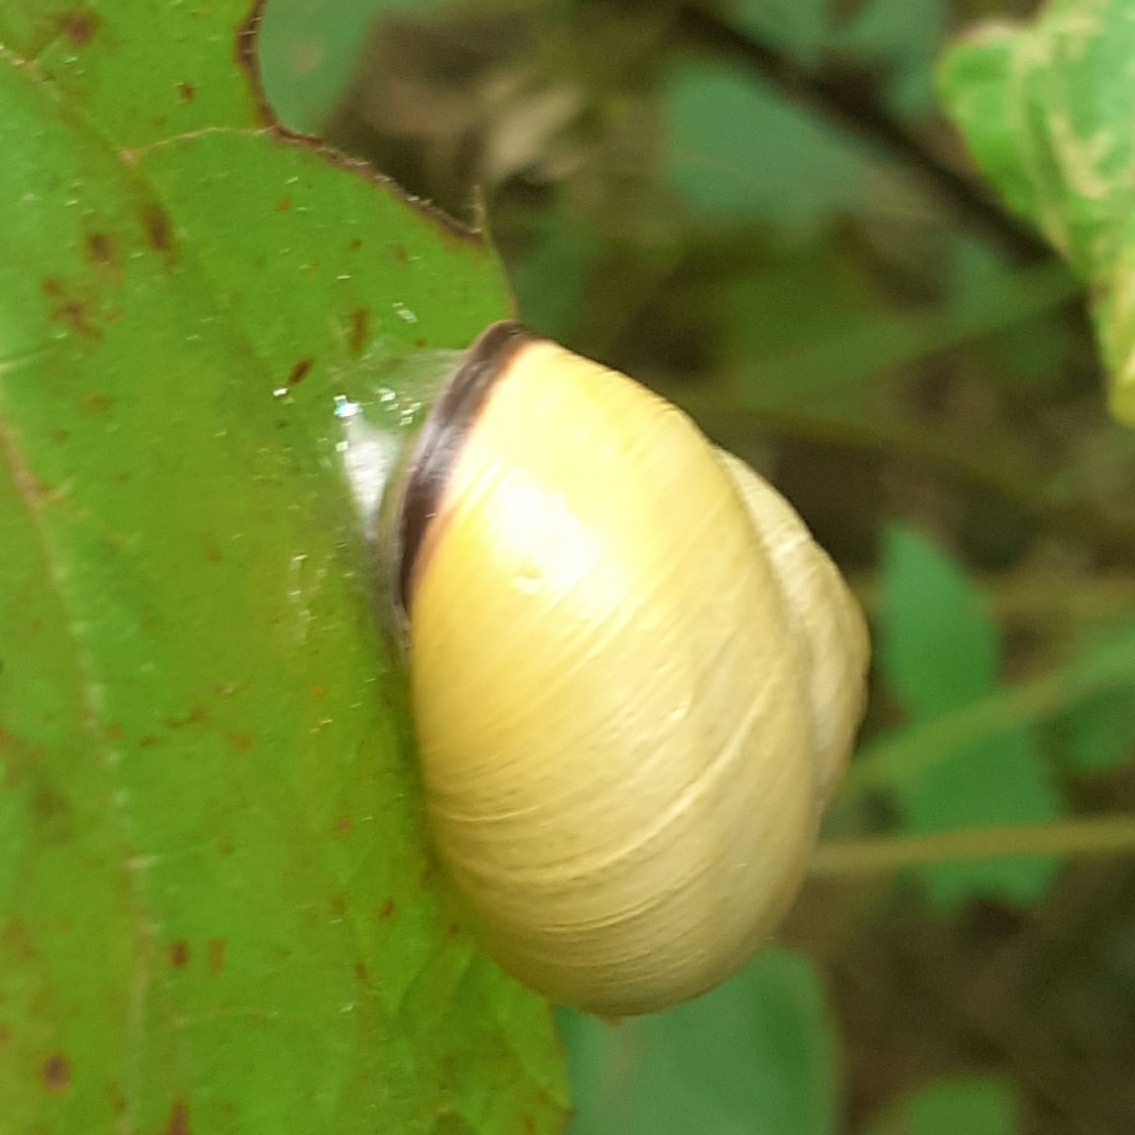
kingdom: Animalia
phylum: Mollusca
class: Gastropoda
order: Stylommatophora
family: Helicidae
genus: Cepaea
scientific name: Cepaea nemoralis
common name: Grovesnail
